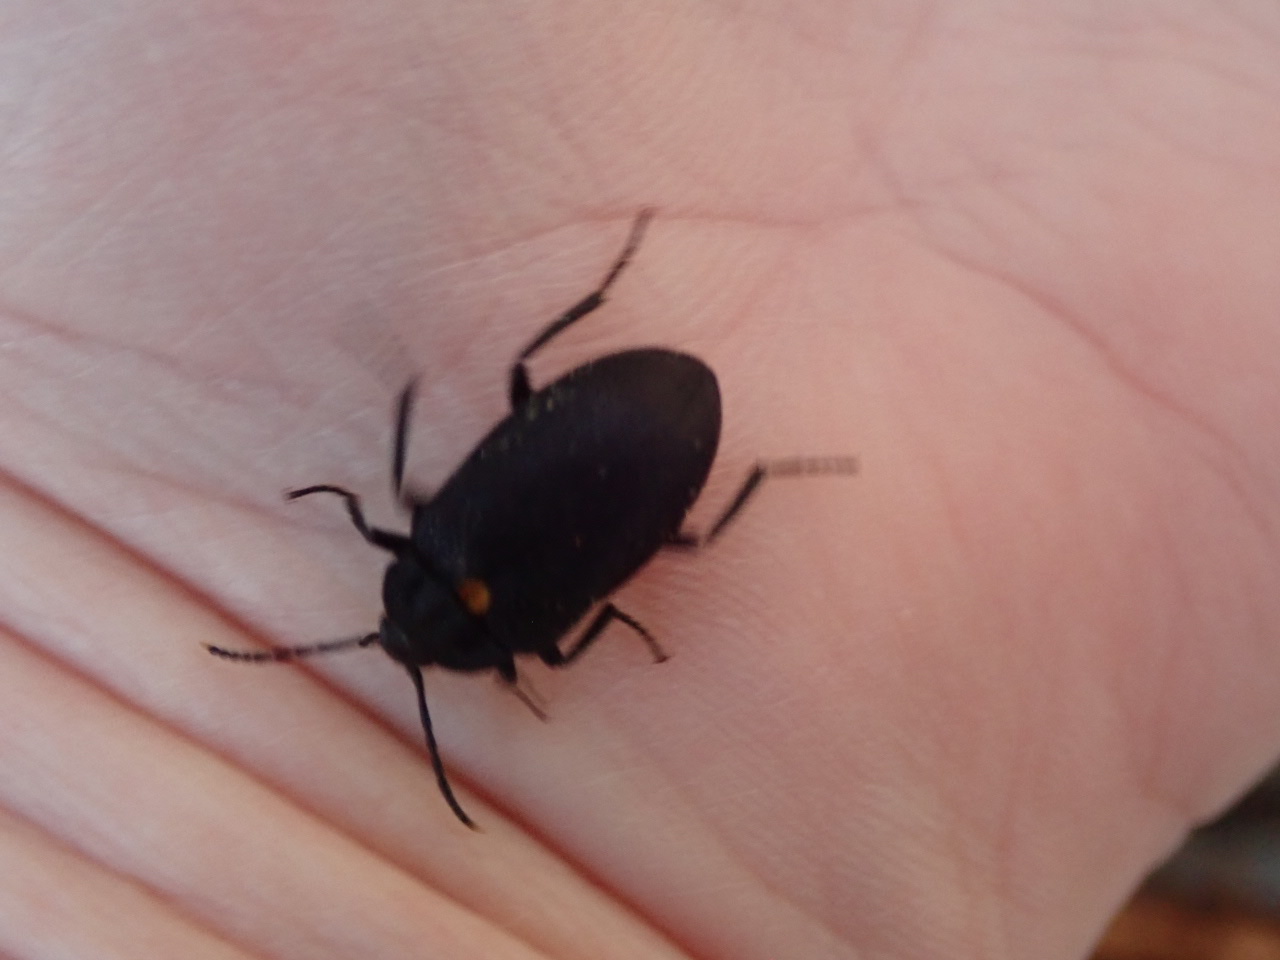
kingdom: Animalia
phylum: Arthropoda
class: Insecta
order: Coleoptera
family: Tetratomidae
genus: Penthe
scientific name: Penthe obliquata
